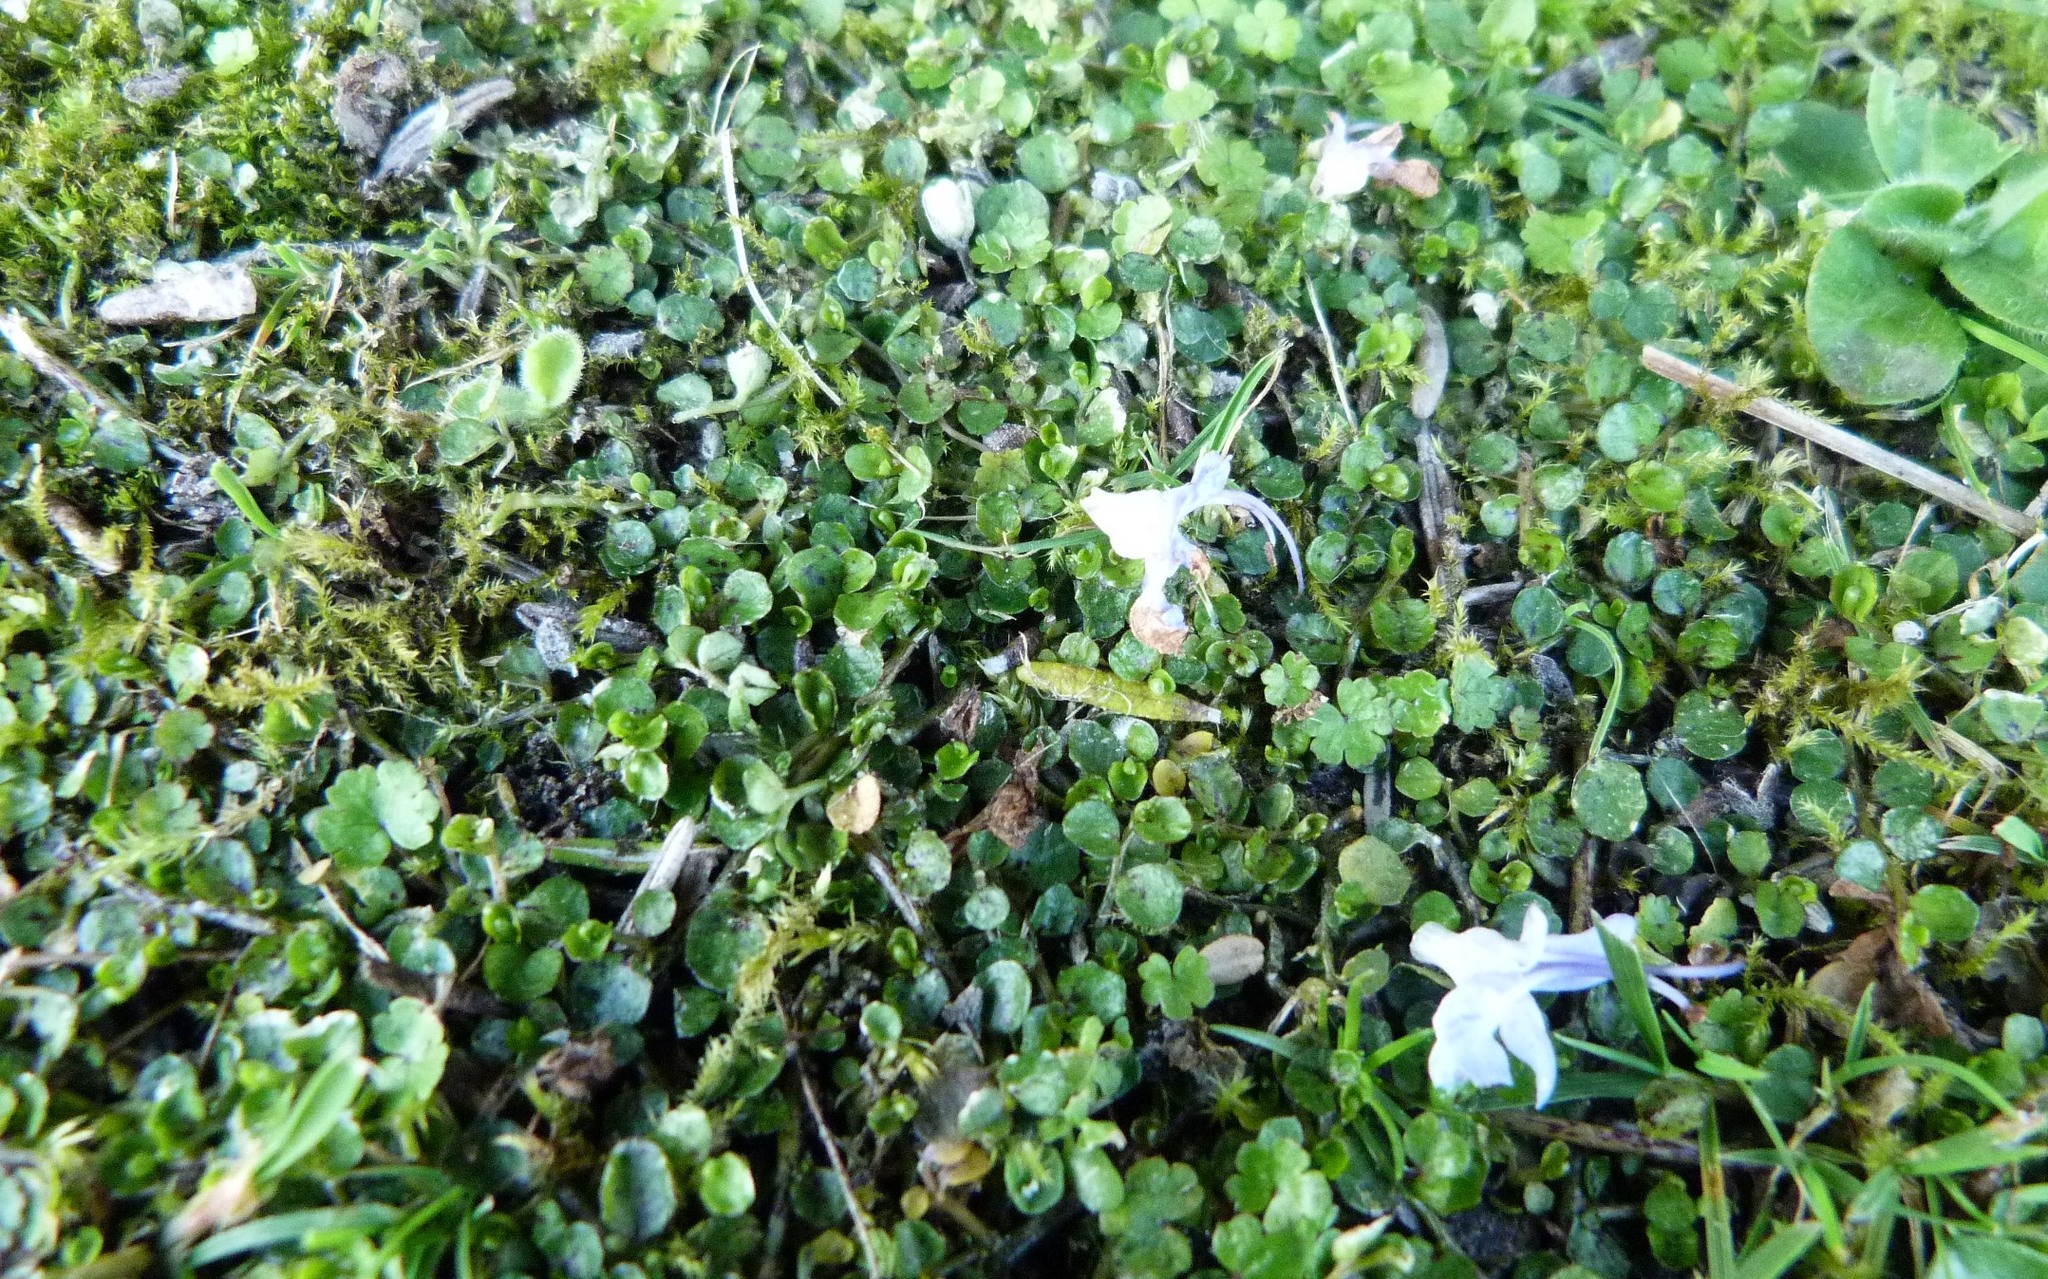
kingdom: Plantae
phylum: Tracheophyta
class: Magnoliopsida
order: Asterales
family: Campanulaceae
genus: Lobelia
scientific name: Lobelia pedunculata
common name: Matted pratia
